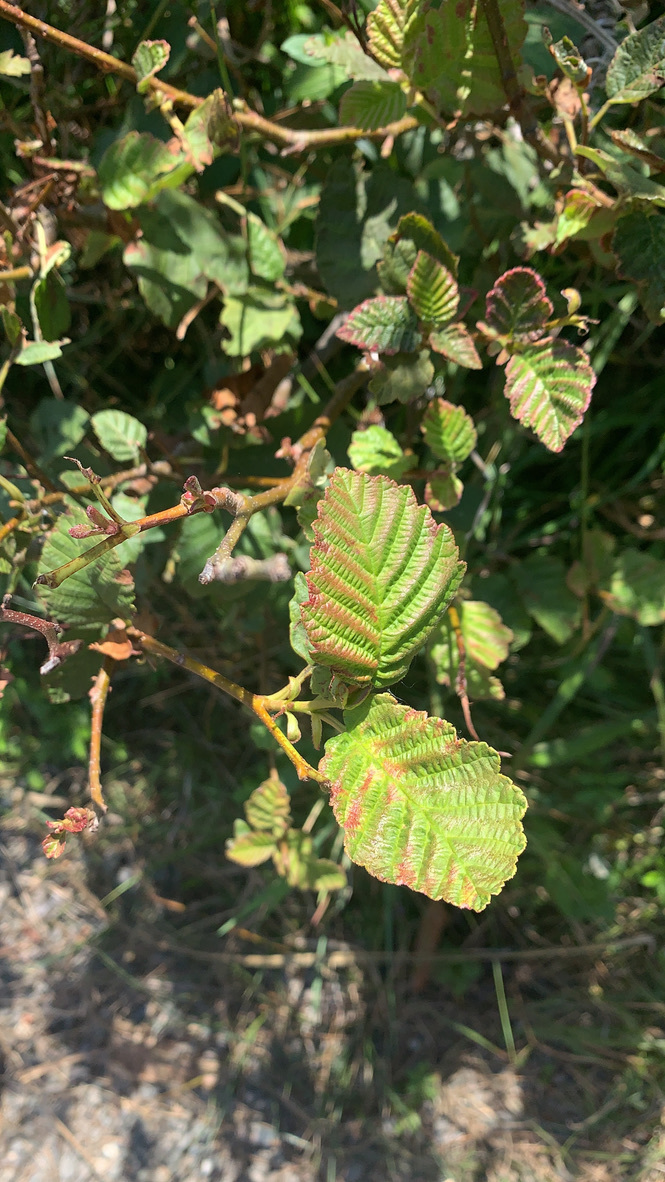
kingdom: Plantae
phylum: Tracheophyta
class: Magnoliopsida
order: Fagales
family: Betulaceae
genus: Alnus
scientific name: Alnus rubra
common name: Red alder
